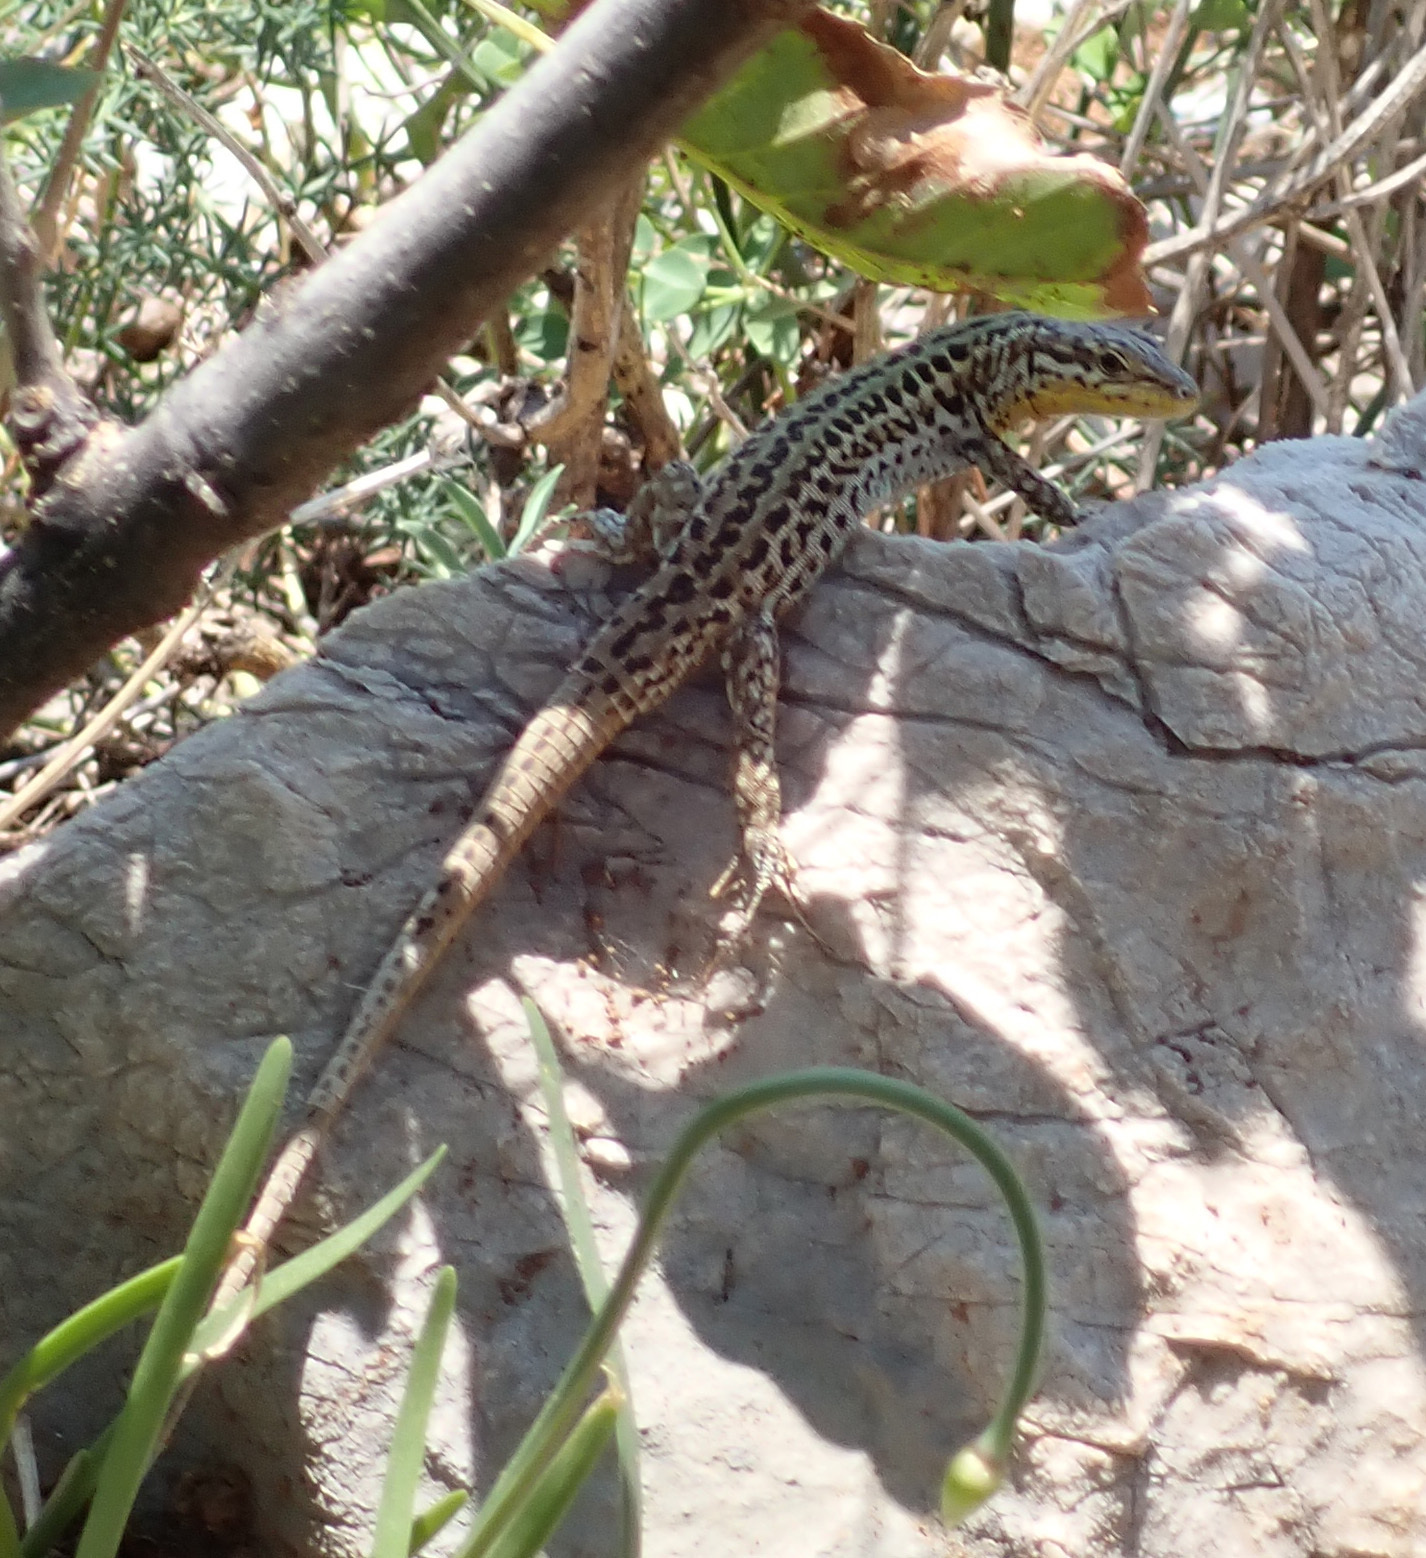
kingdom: Animalia
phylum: Chordata
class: Squamata
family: Lacertidae
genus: Podarcis
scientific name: Podarcis melisellensis
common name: Dalmatian wall lizard
